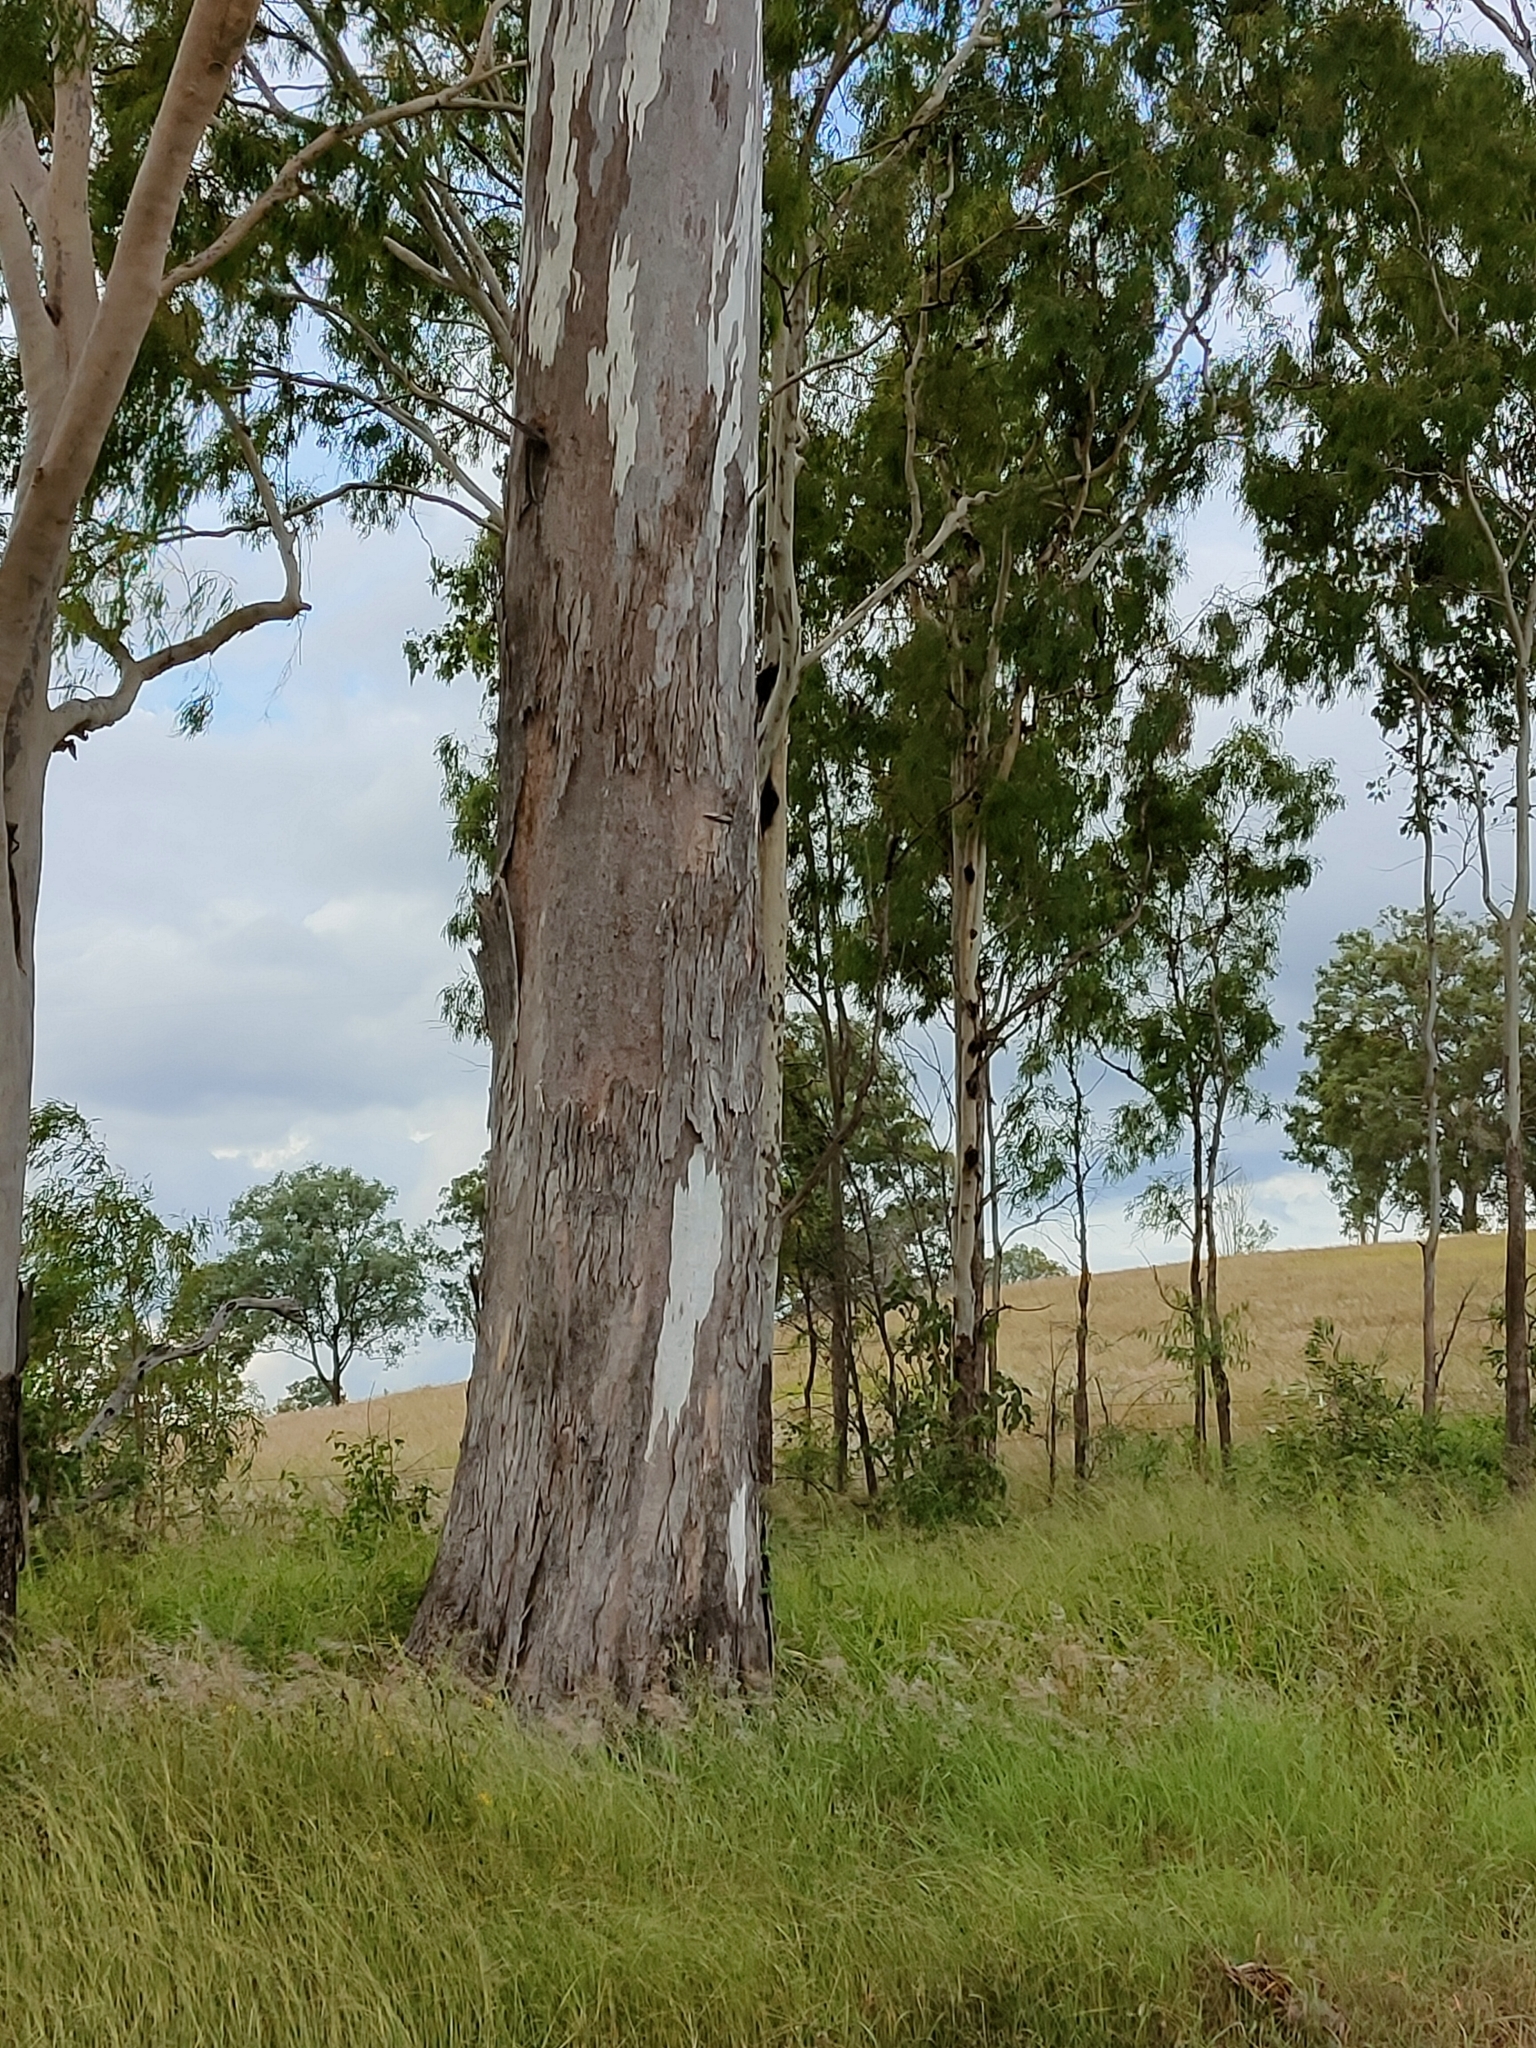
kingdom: Plantae
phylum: Tracheophyta
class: Magnoliopsida
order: Myrtales
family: Myrtaceae
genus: Eucalyptus
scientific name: Eucalyptus tereticornis
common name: Forest redgum
